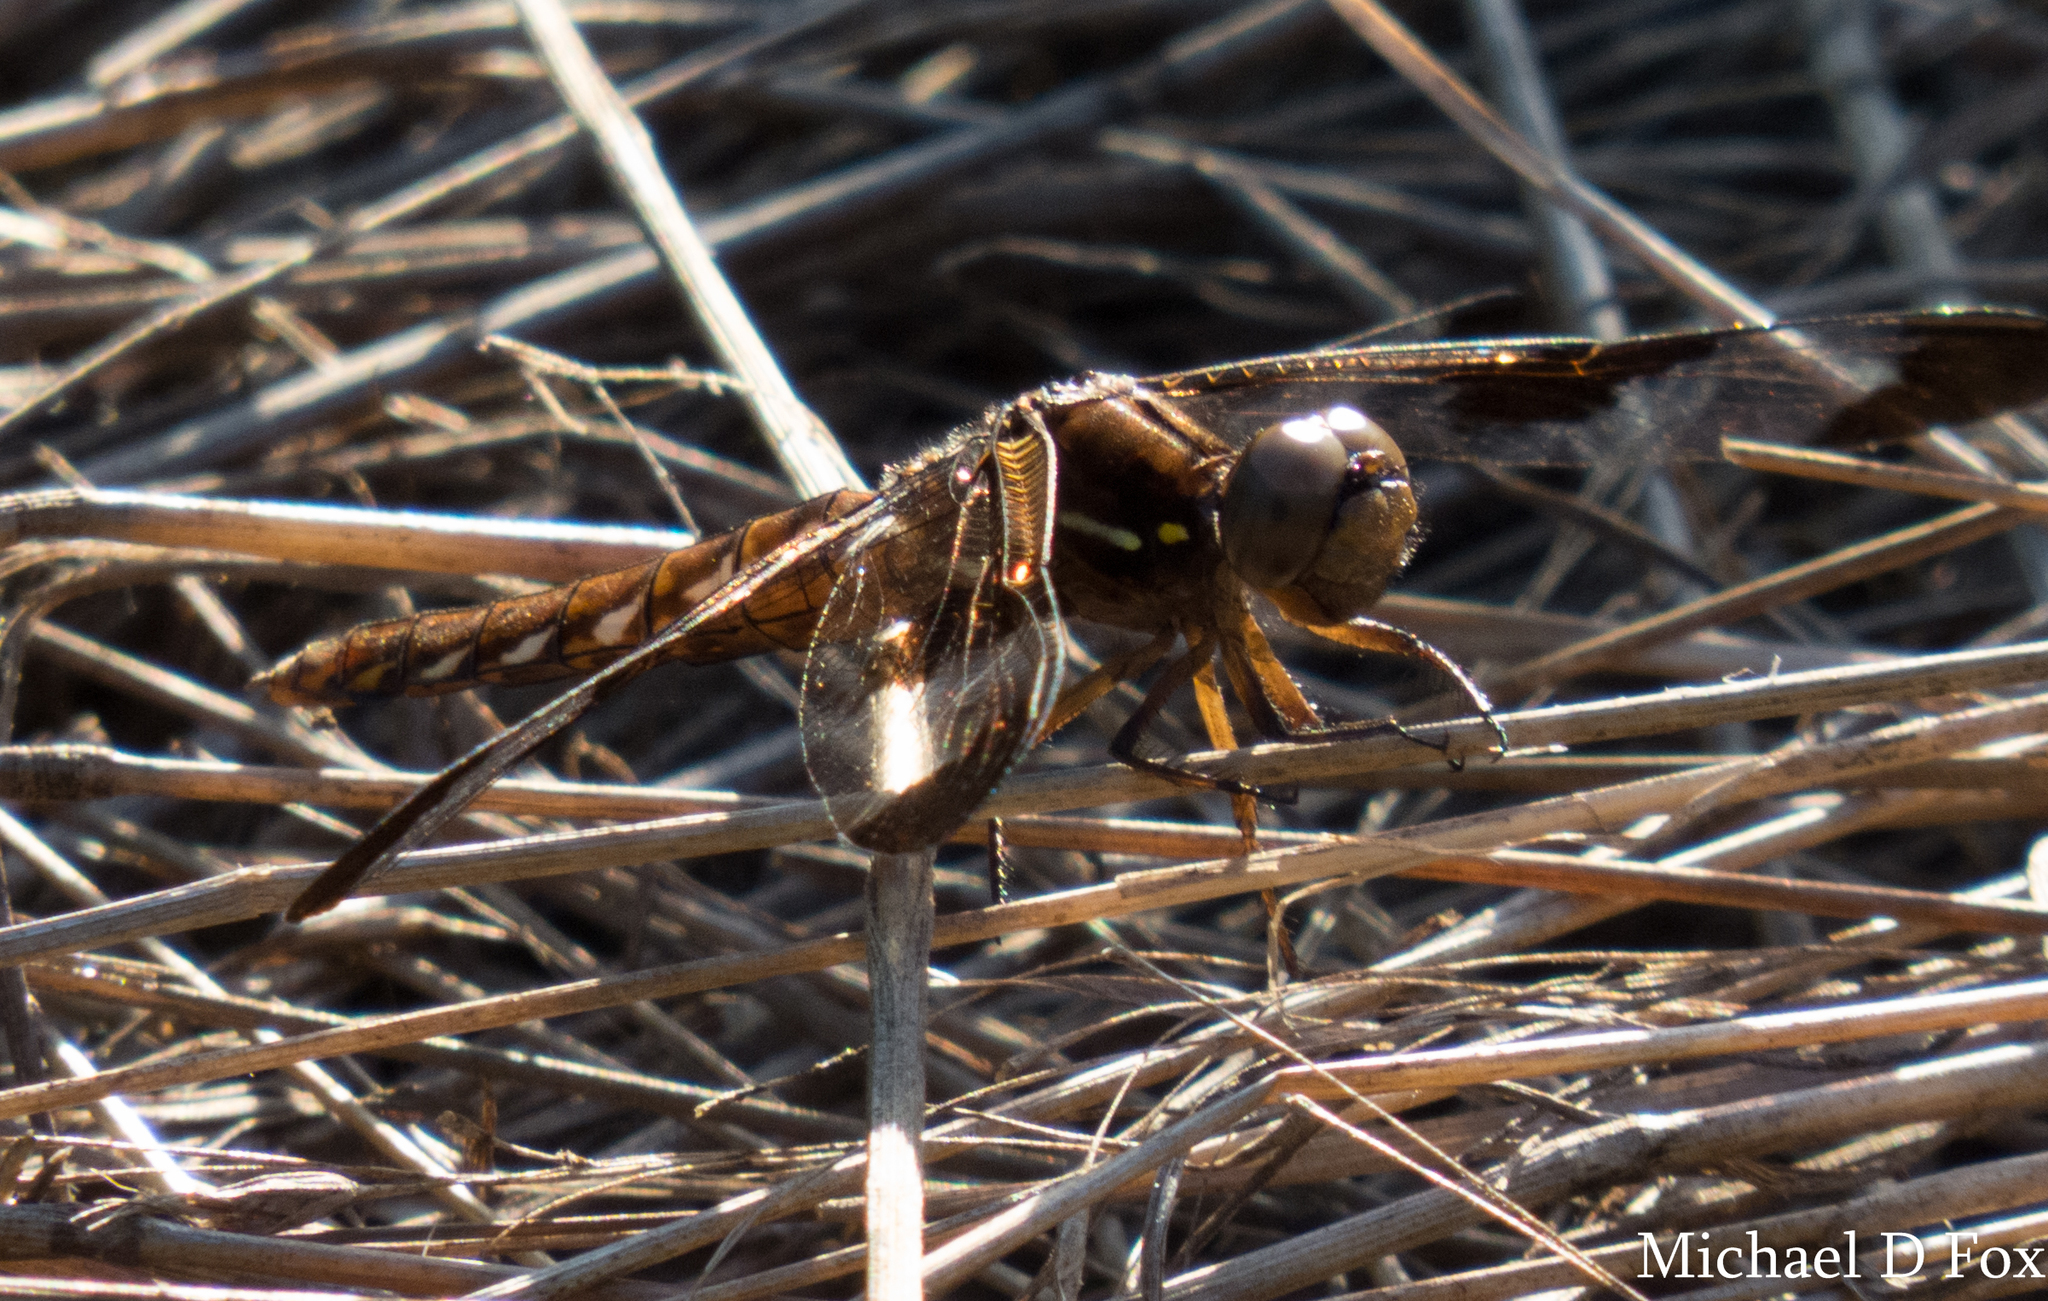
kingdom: Animalia
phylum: Arthropoda
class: Insecta
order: Odonata
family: Libellulidae
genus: Plathemis
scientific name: Plathemis lydia
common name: Common whitetail
